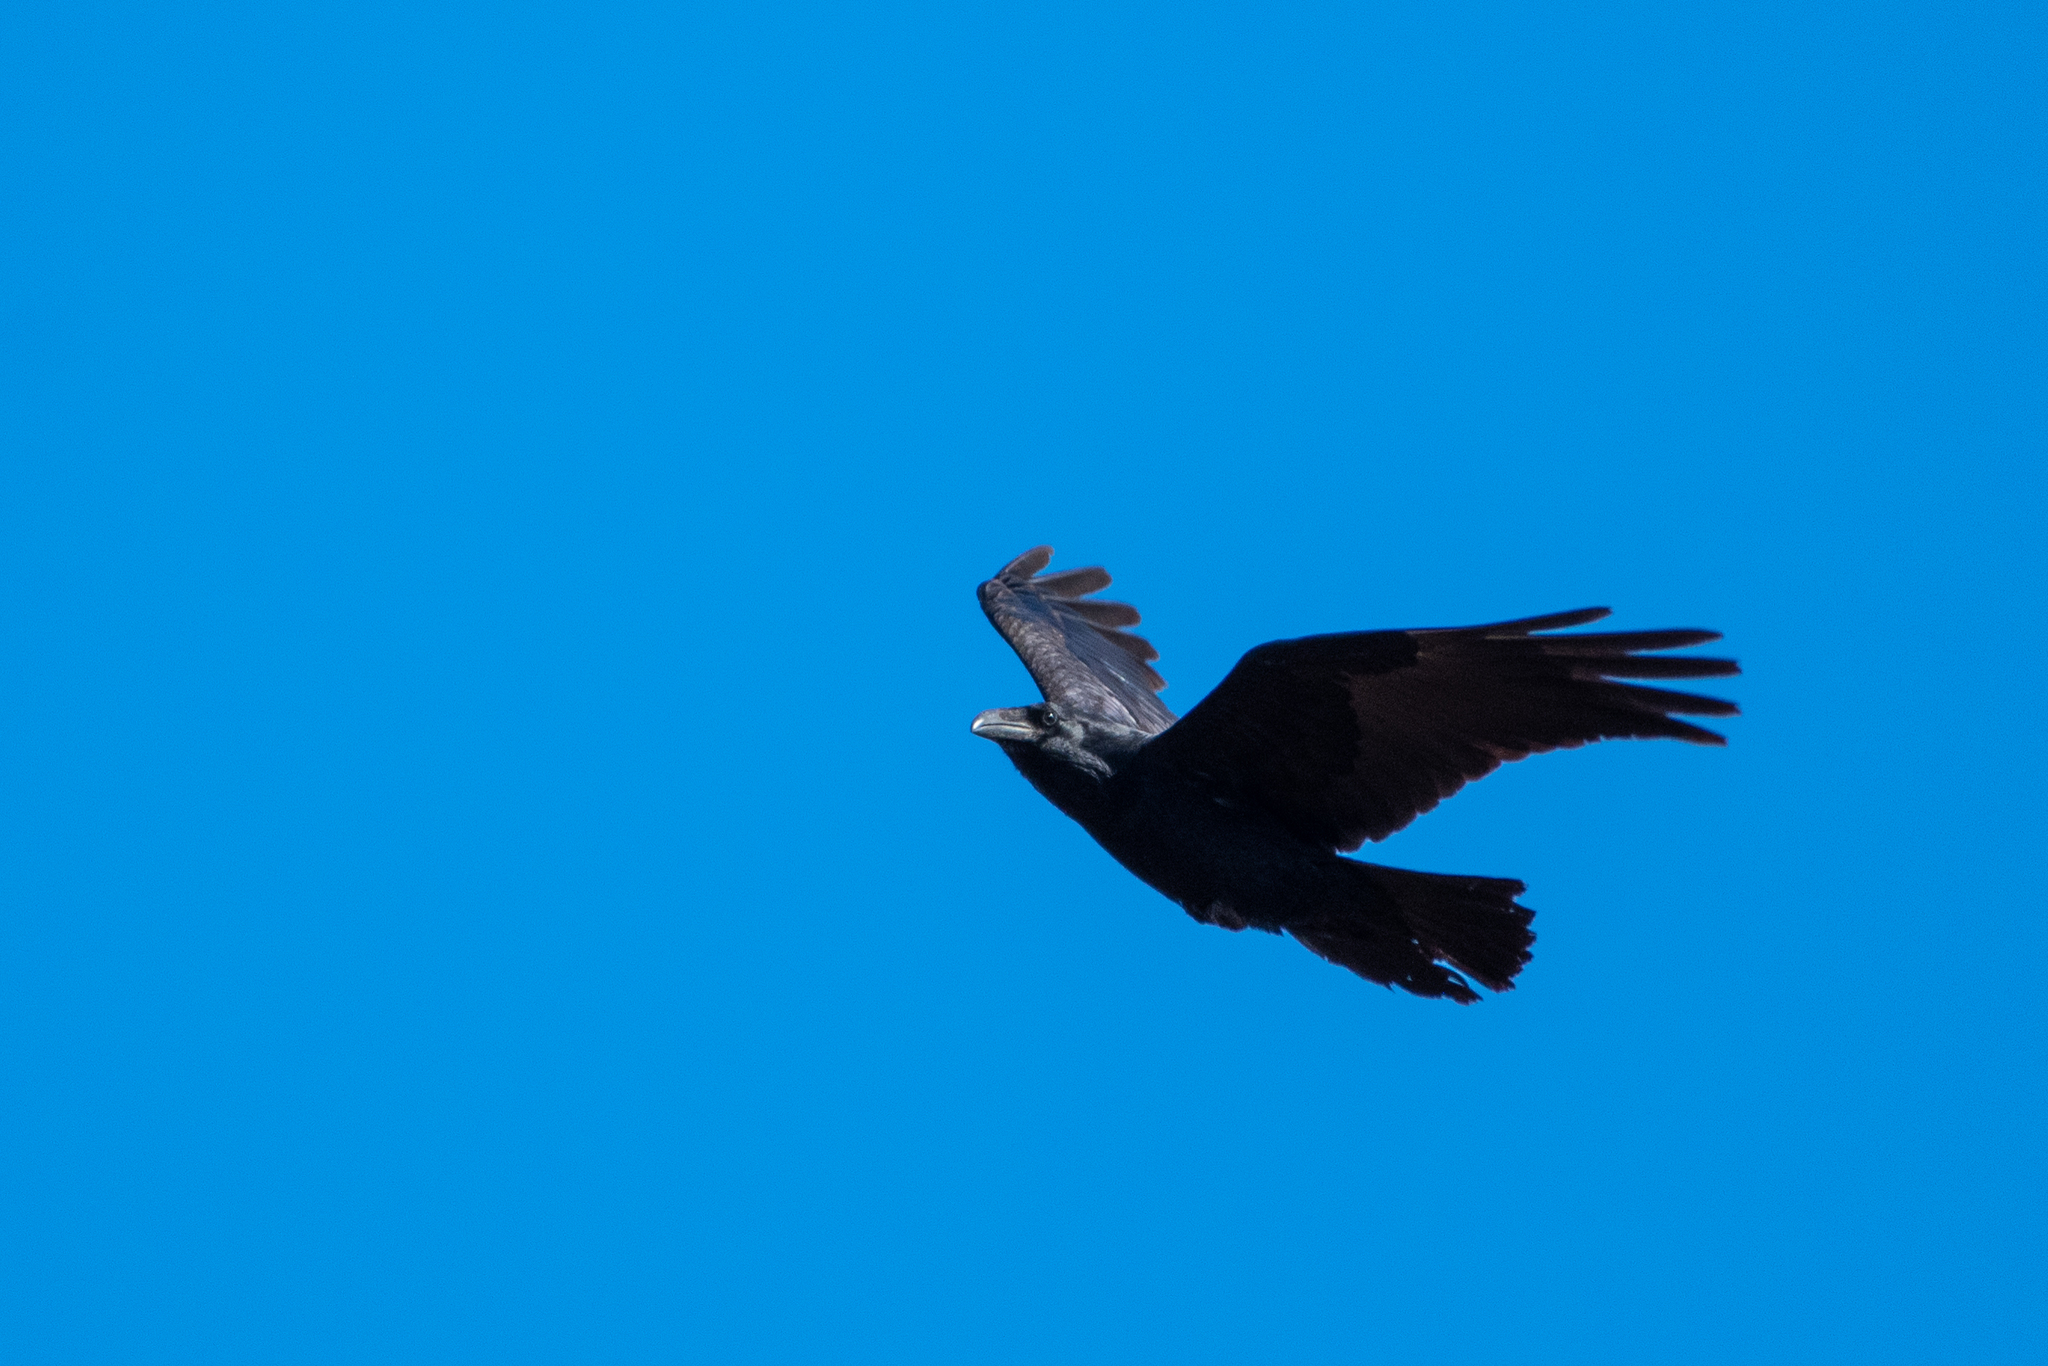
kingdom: Animalia
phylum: Chordata
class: Aves
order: Passeriformes
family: Corvidae
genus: Corvus
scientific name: Corvus corax
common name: Common raven
